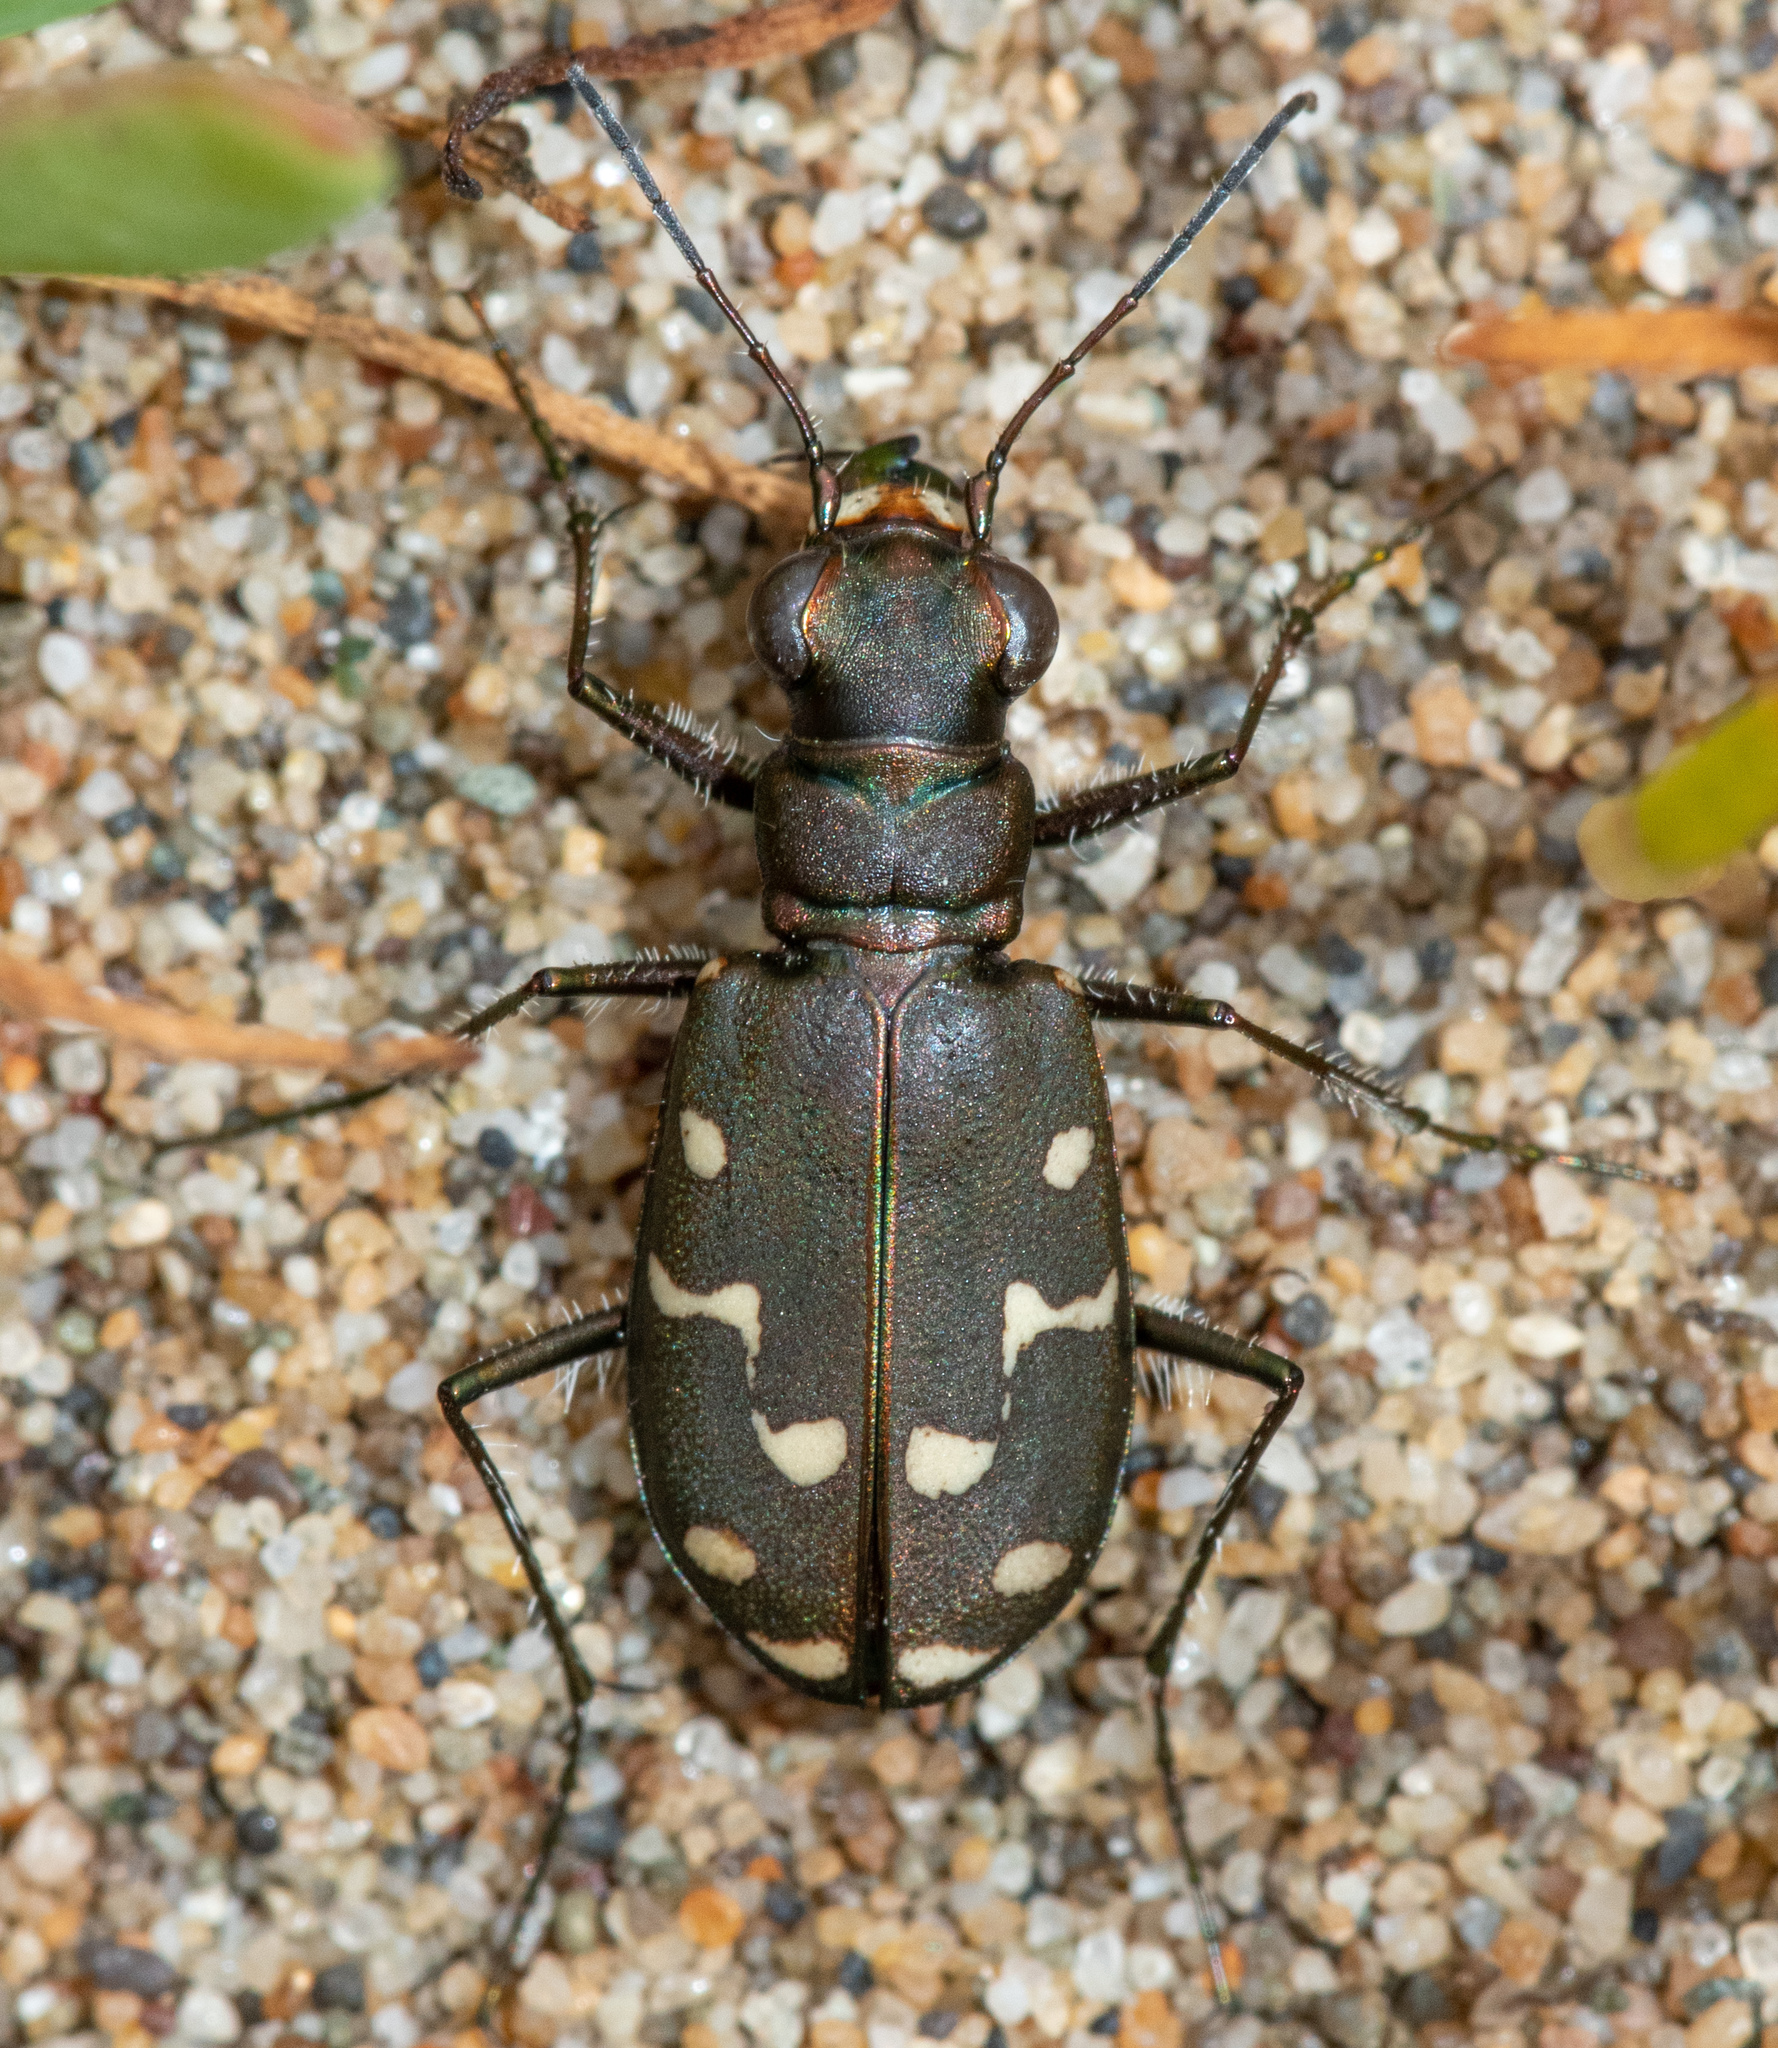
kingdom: Animalia
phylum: Arthropoda
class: Insecta
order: Coleoptera
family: Carabidae
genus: Cicindela
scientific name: Cicindela oregona
